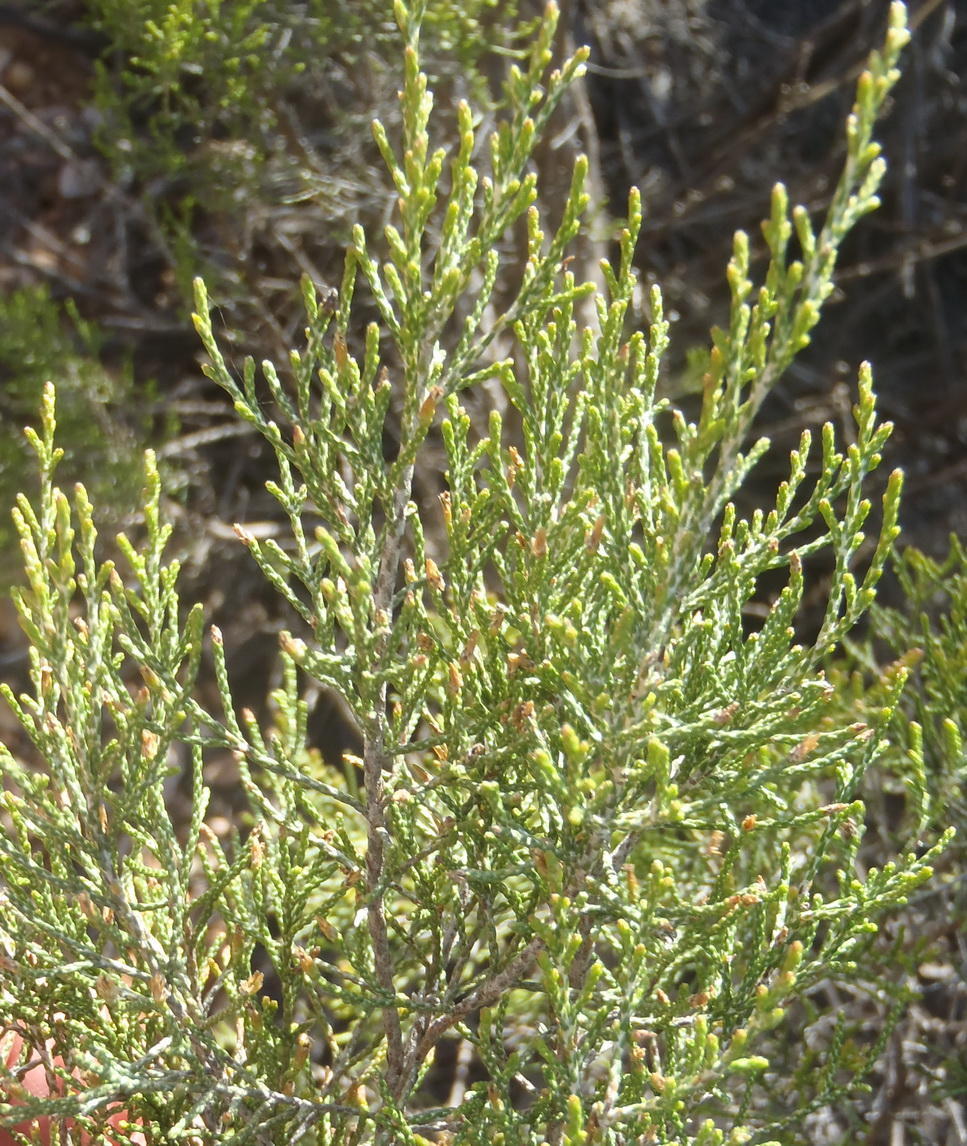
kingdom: Plantae
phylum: Tracheophyta
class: Magnoliopsida
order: Asterales
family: Asteraceae
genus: Dicerothamnus
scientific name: Dicerothamnus rhinocerotis
